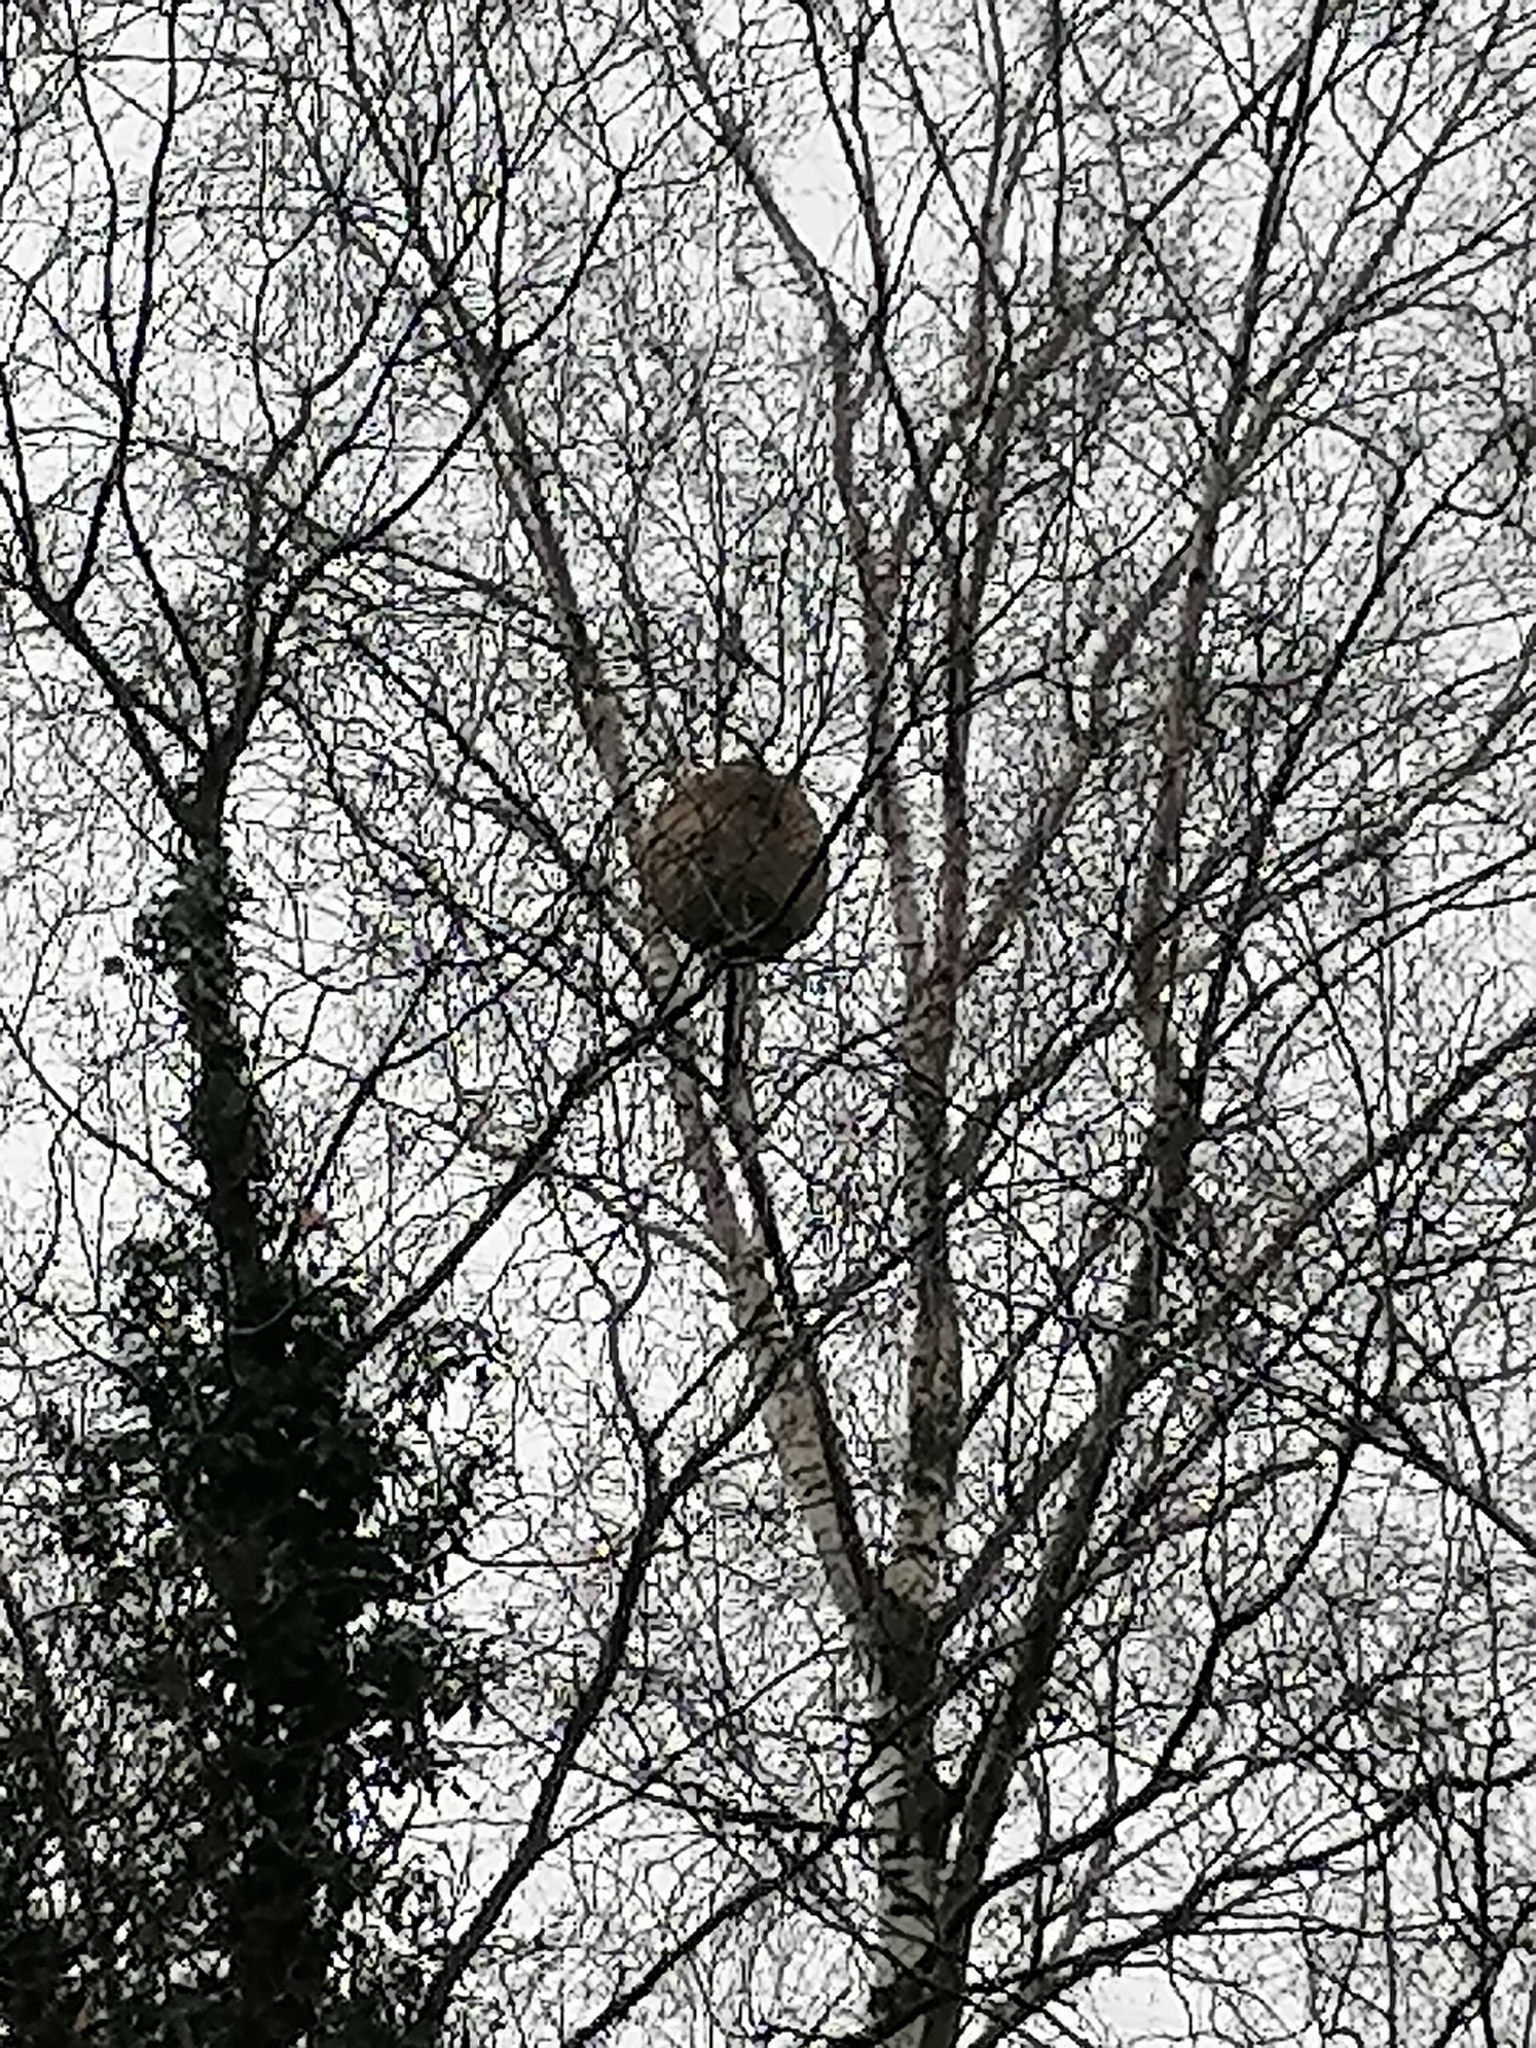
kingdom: Animalia
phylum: Arthropoda
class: Insecta
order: Hymenoptera
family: Vespidae
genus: Vespa
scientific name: Vespa velutina
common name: Asian hornet
